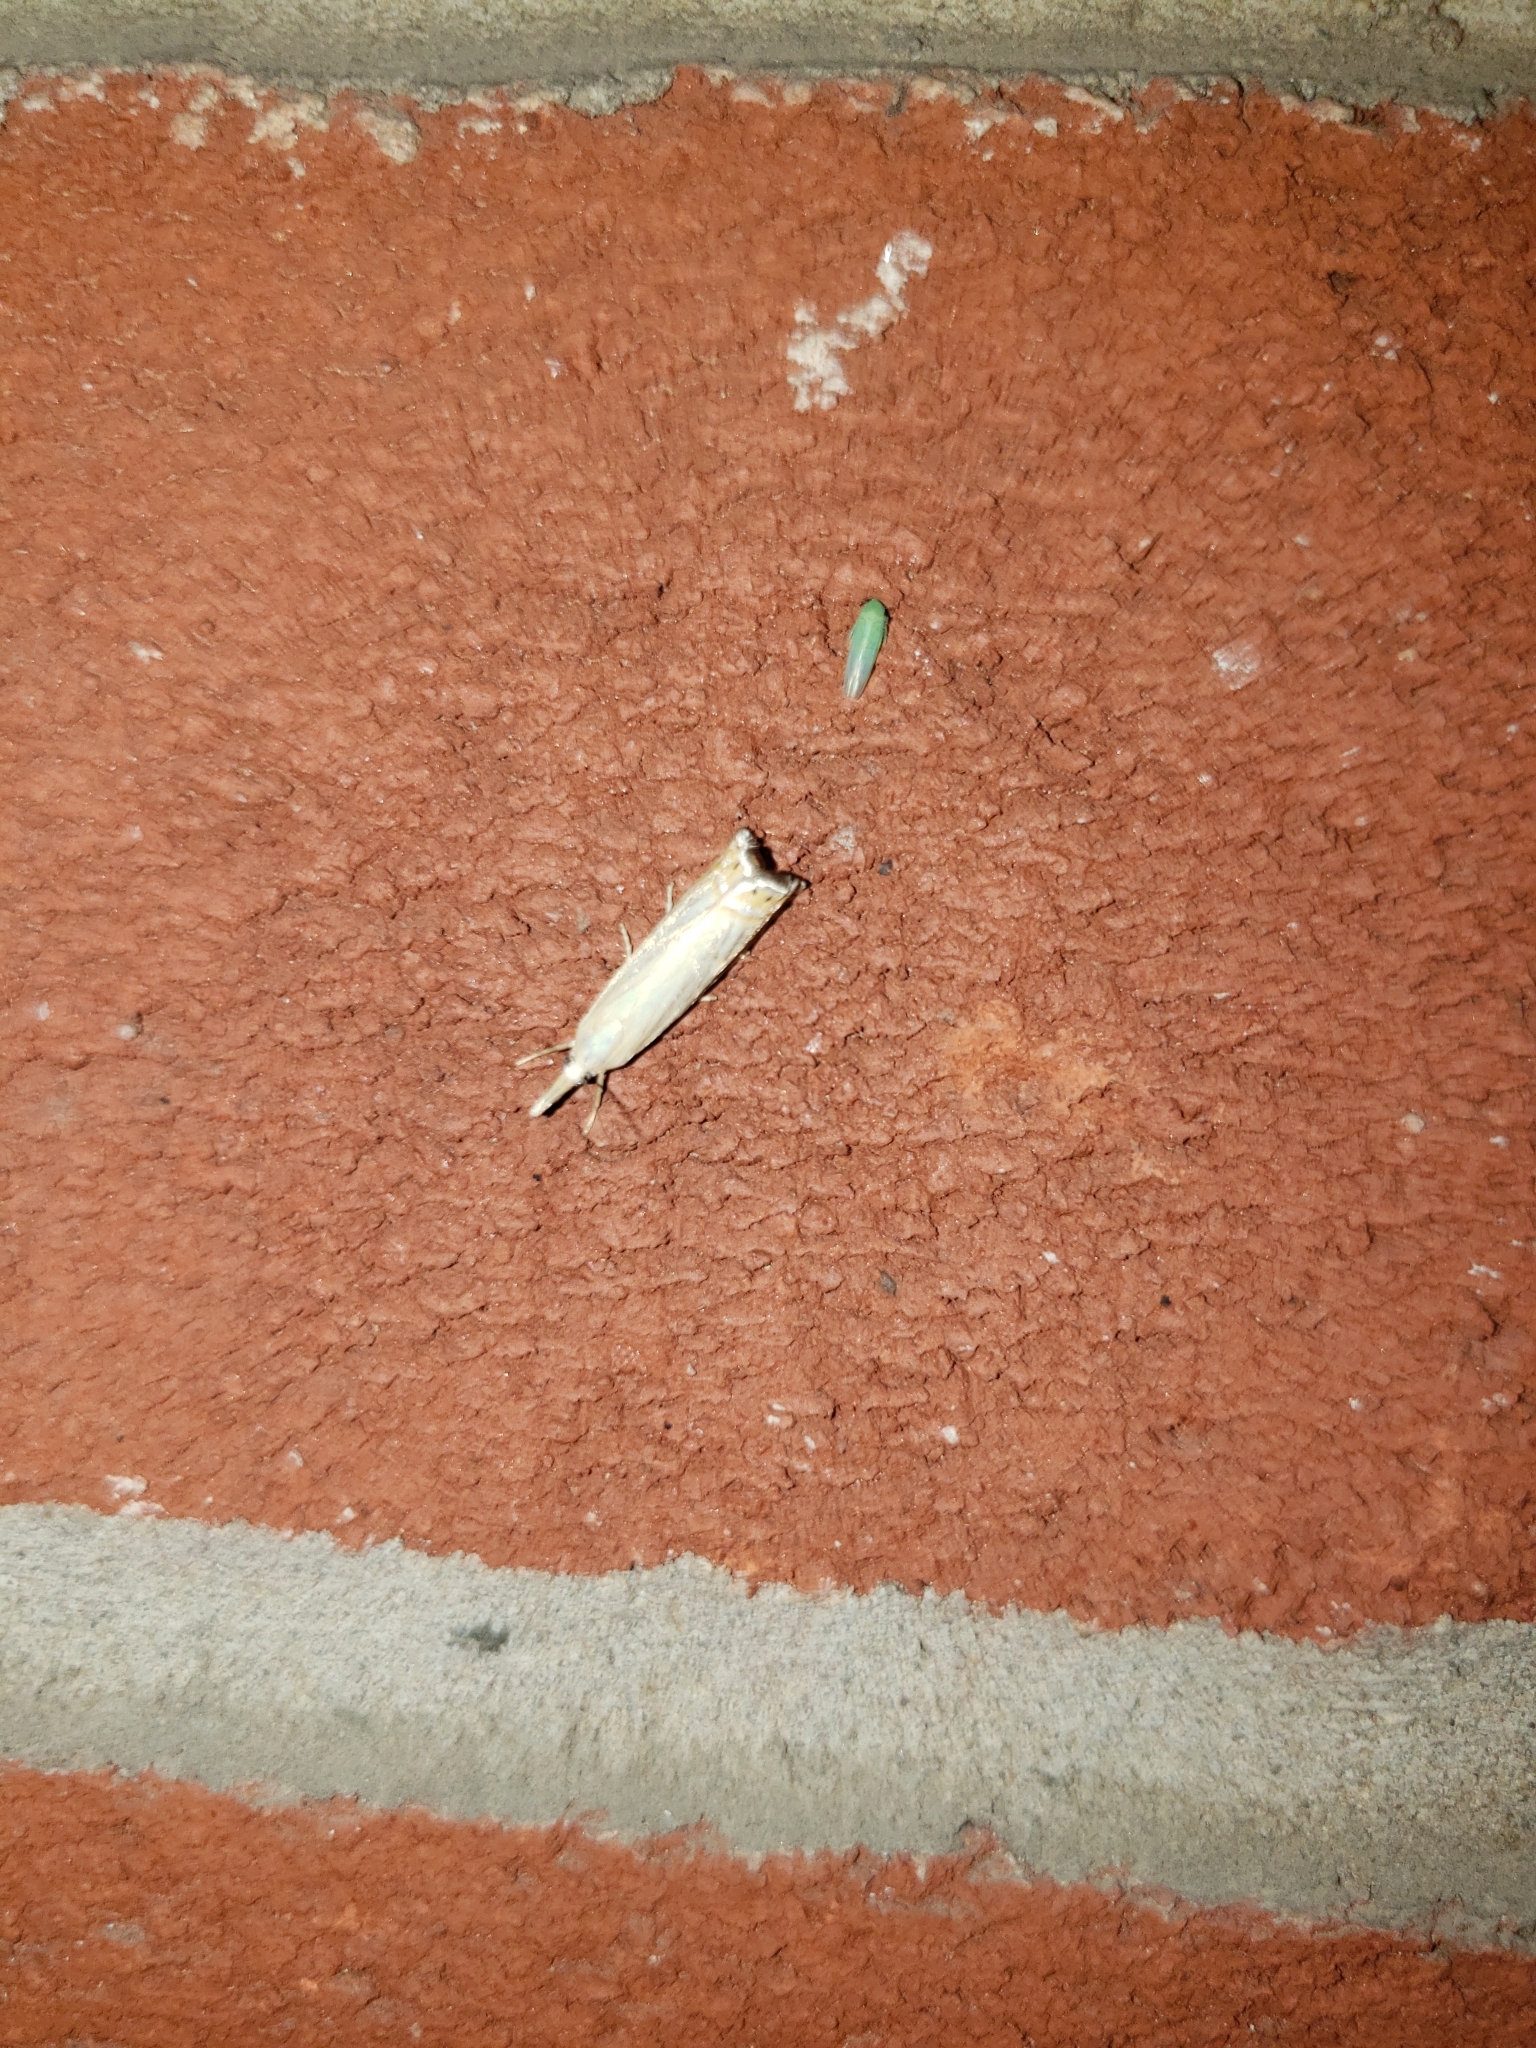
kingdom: Animalia
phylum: Arthropoda
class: Insecta
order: Lepidoptera
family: Crambidae
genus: Chrysoteuchia
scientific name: Chrysoteuchia topiarius
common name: Topiary grass-veneer
